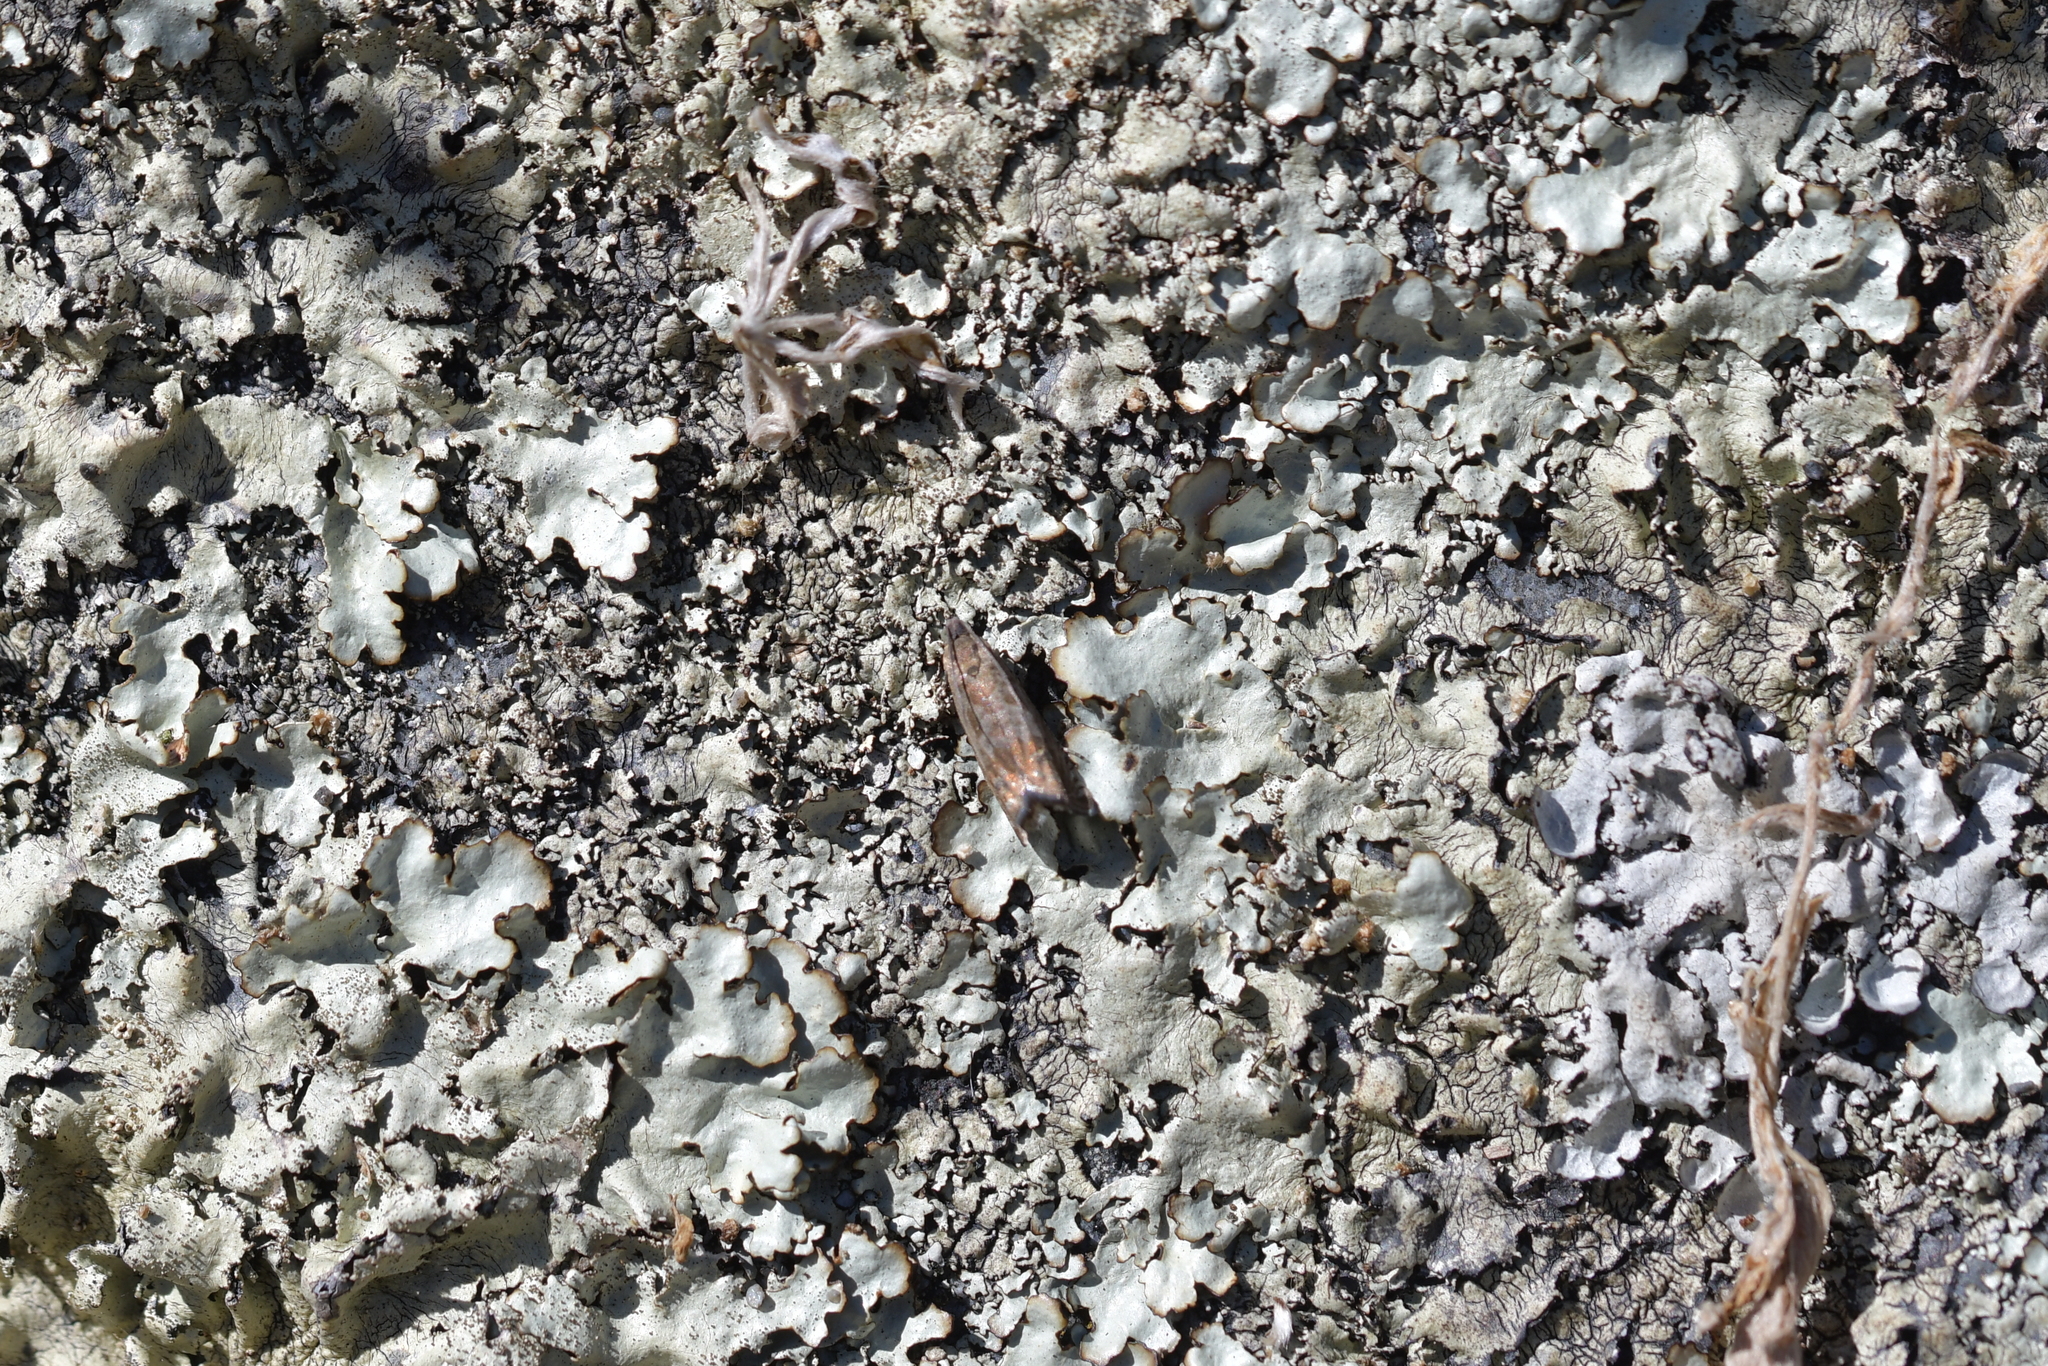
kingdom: Animalia
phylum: Arthropoda
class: Insecta
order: Lepidoptera
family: Tortricidae
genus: Cydia
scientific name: Cydia succedana
